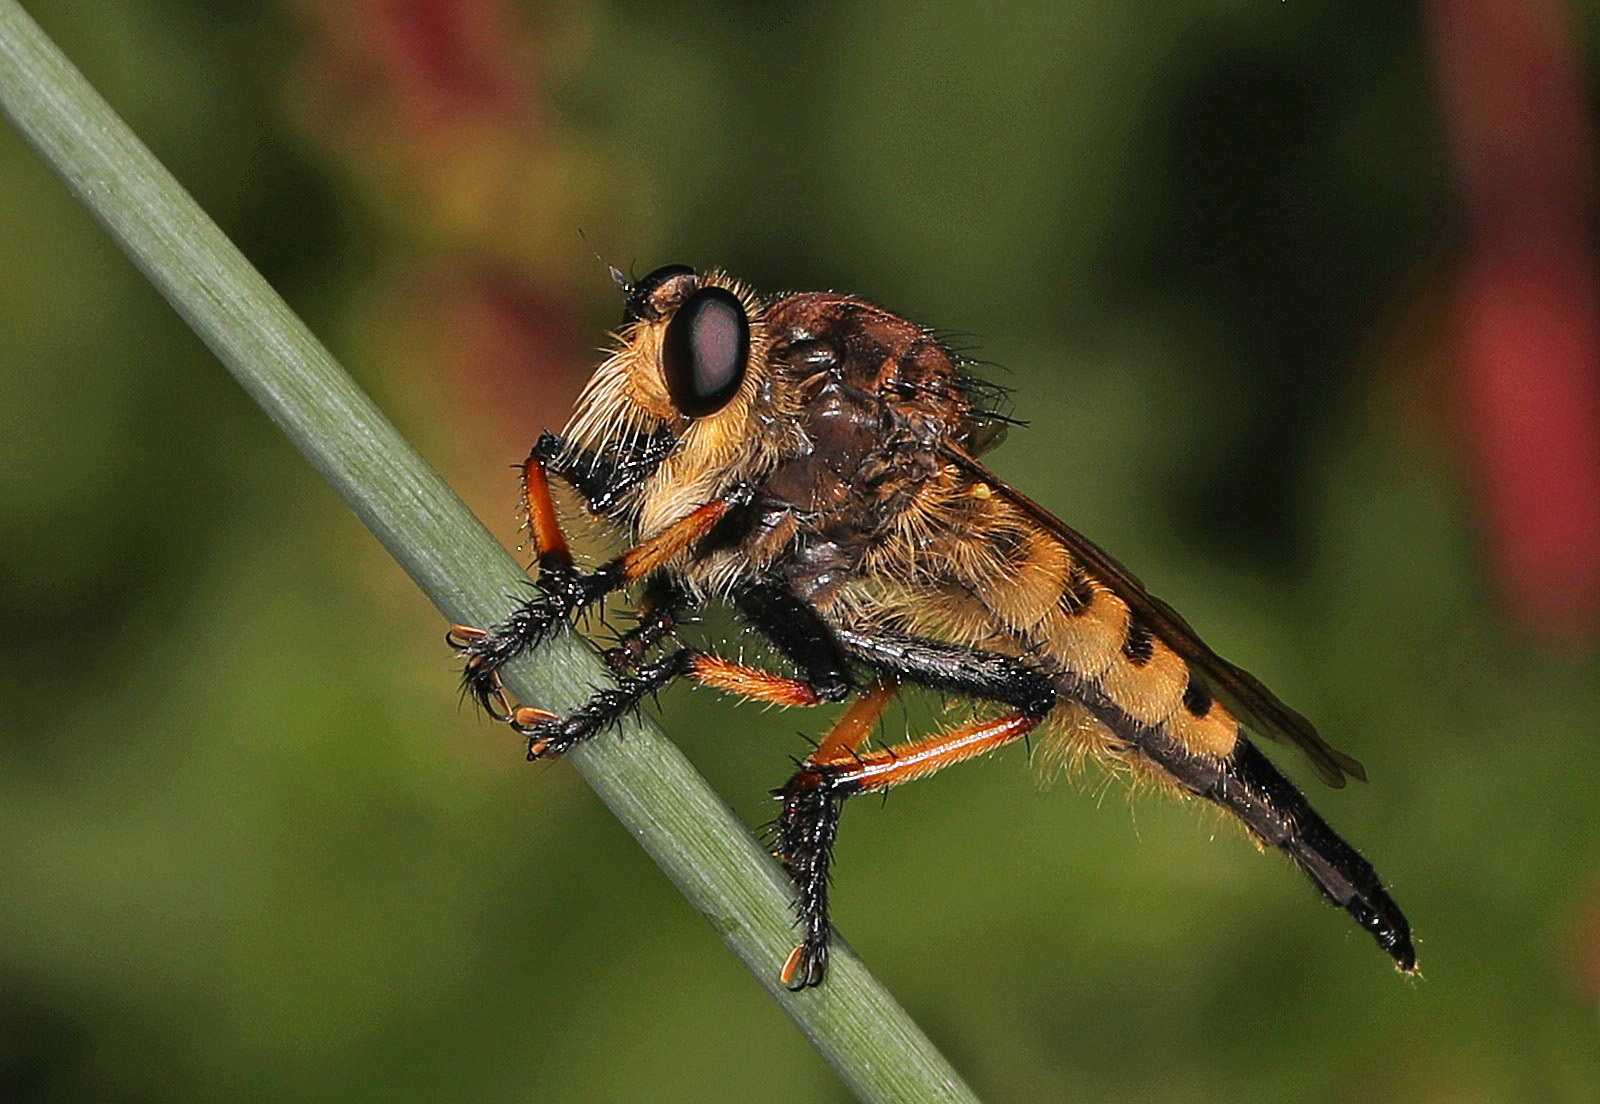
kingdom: Animalia
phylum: Arthropoda
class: Insecta
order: Diptera
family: Asilidae
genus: Promachus
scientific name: Promachus rufipes
